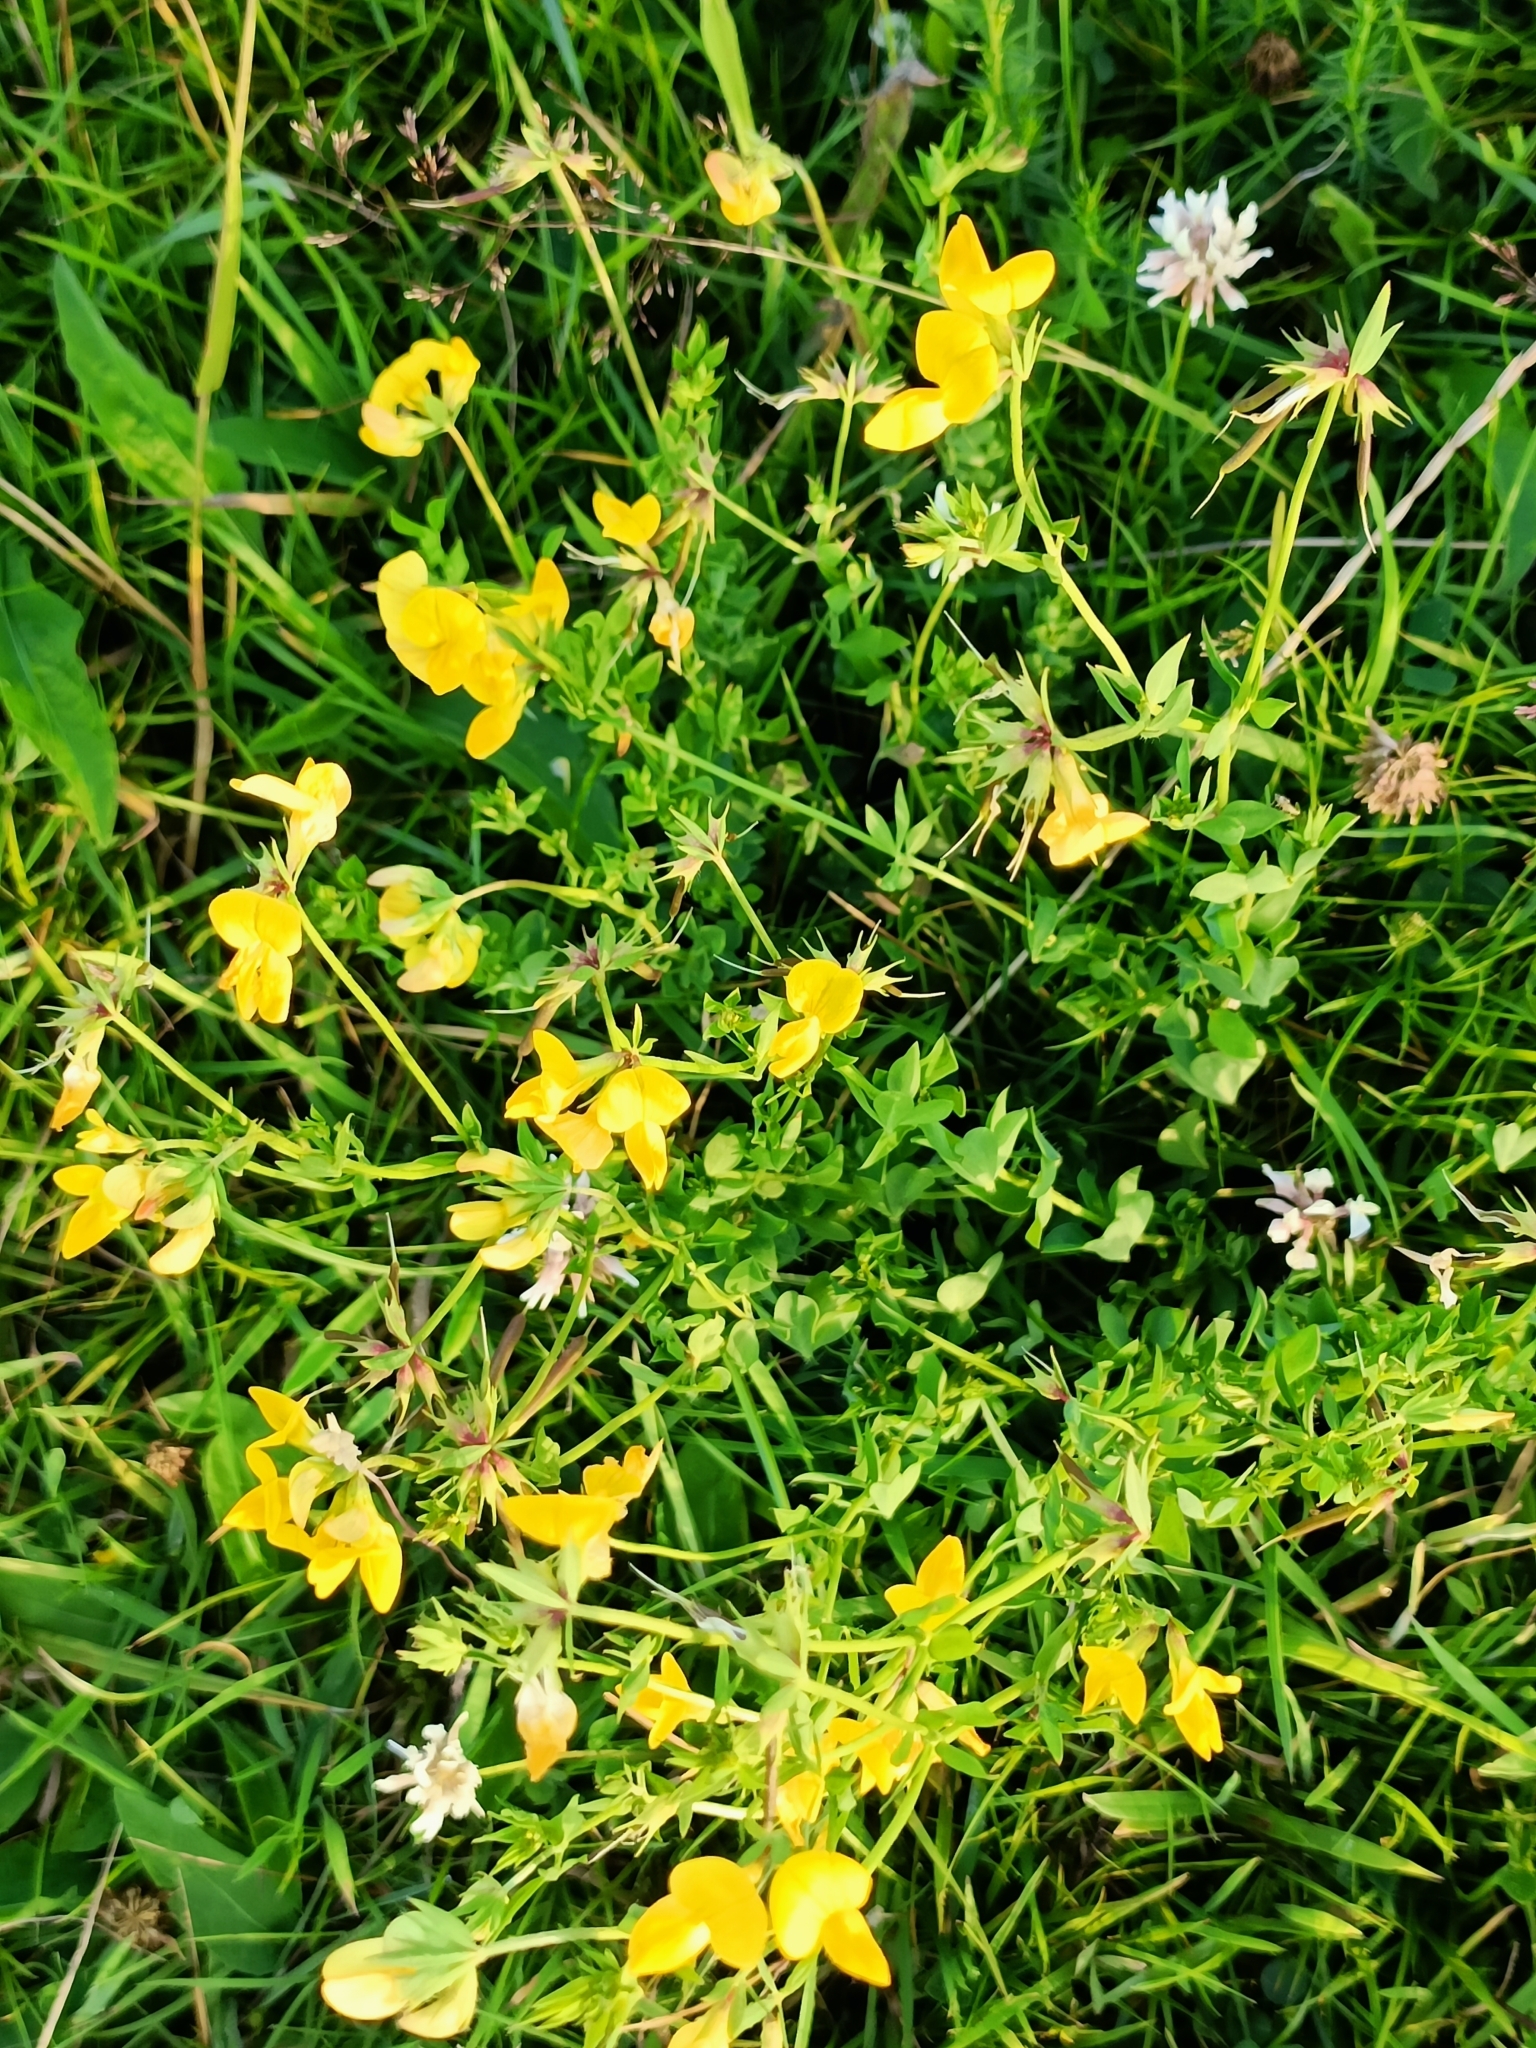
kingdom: Plantae
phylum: Tracheophyta
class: Magnoliopsida
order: Fabales
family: Fabaceae
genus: Lotus
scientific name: Lotus corniculatus
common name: Common bird's-foot-trefoil
